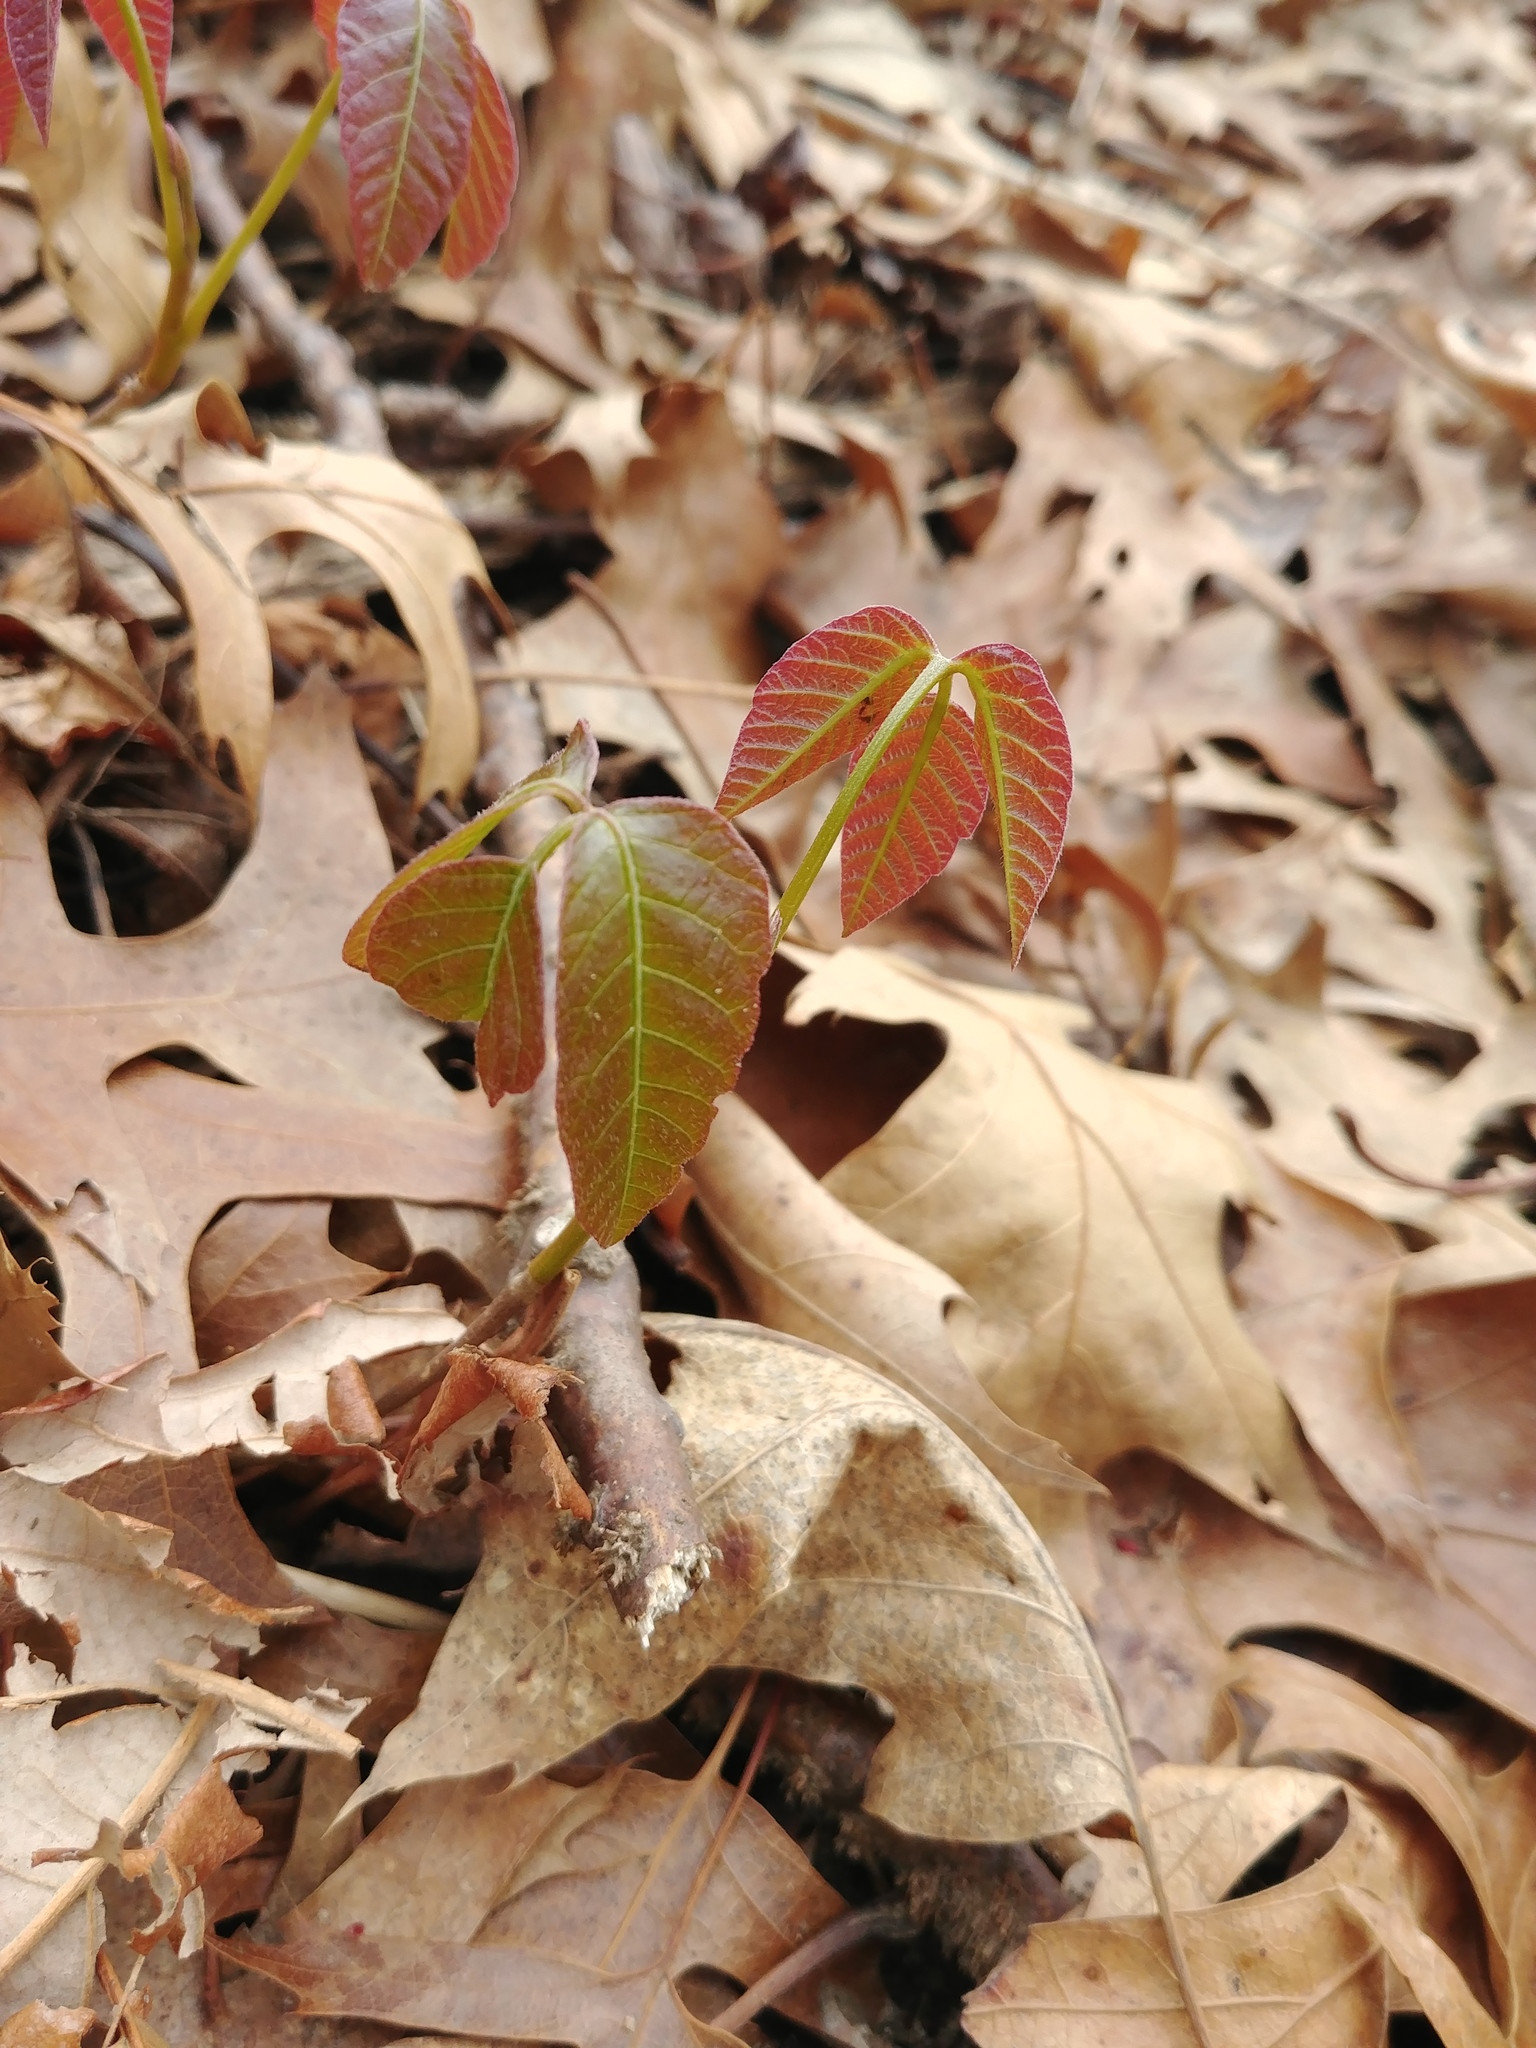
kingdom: Plantae
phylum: Tracheophyta
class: Magnoliopsida
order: Sapindales
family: Anacardiaceae
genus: Toxicodendron
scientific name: Toxicodendron radicans
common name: Poison ivy
